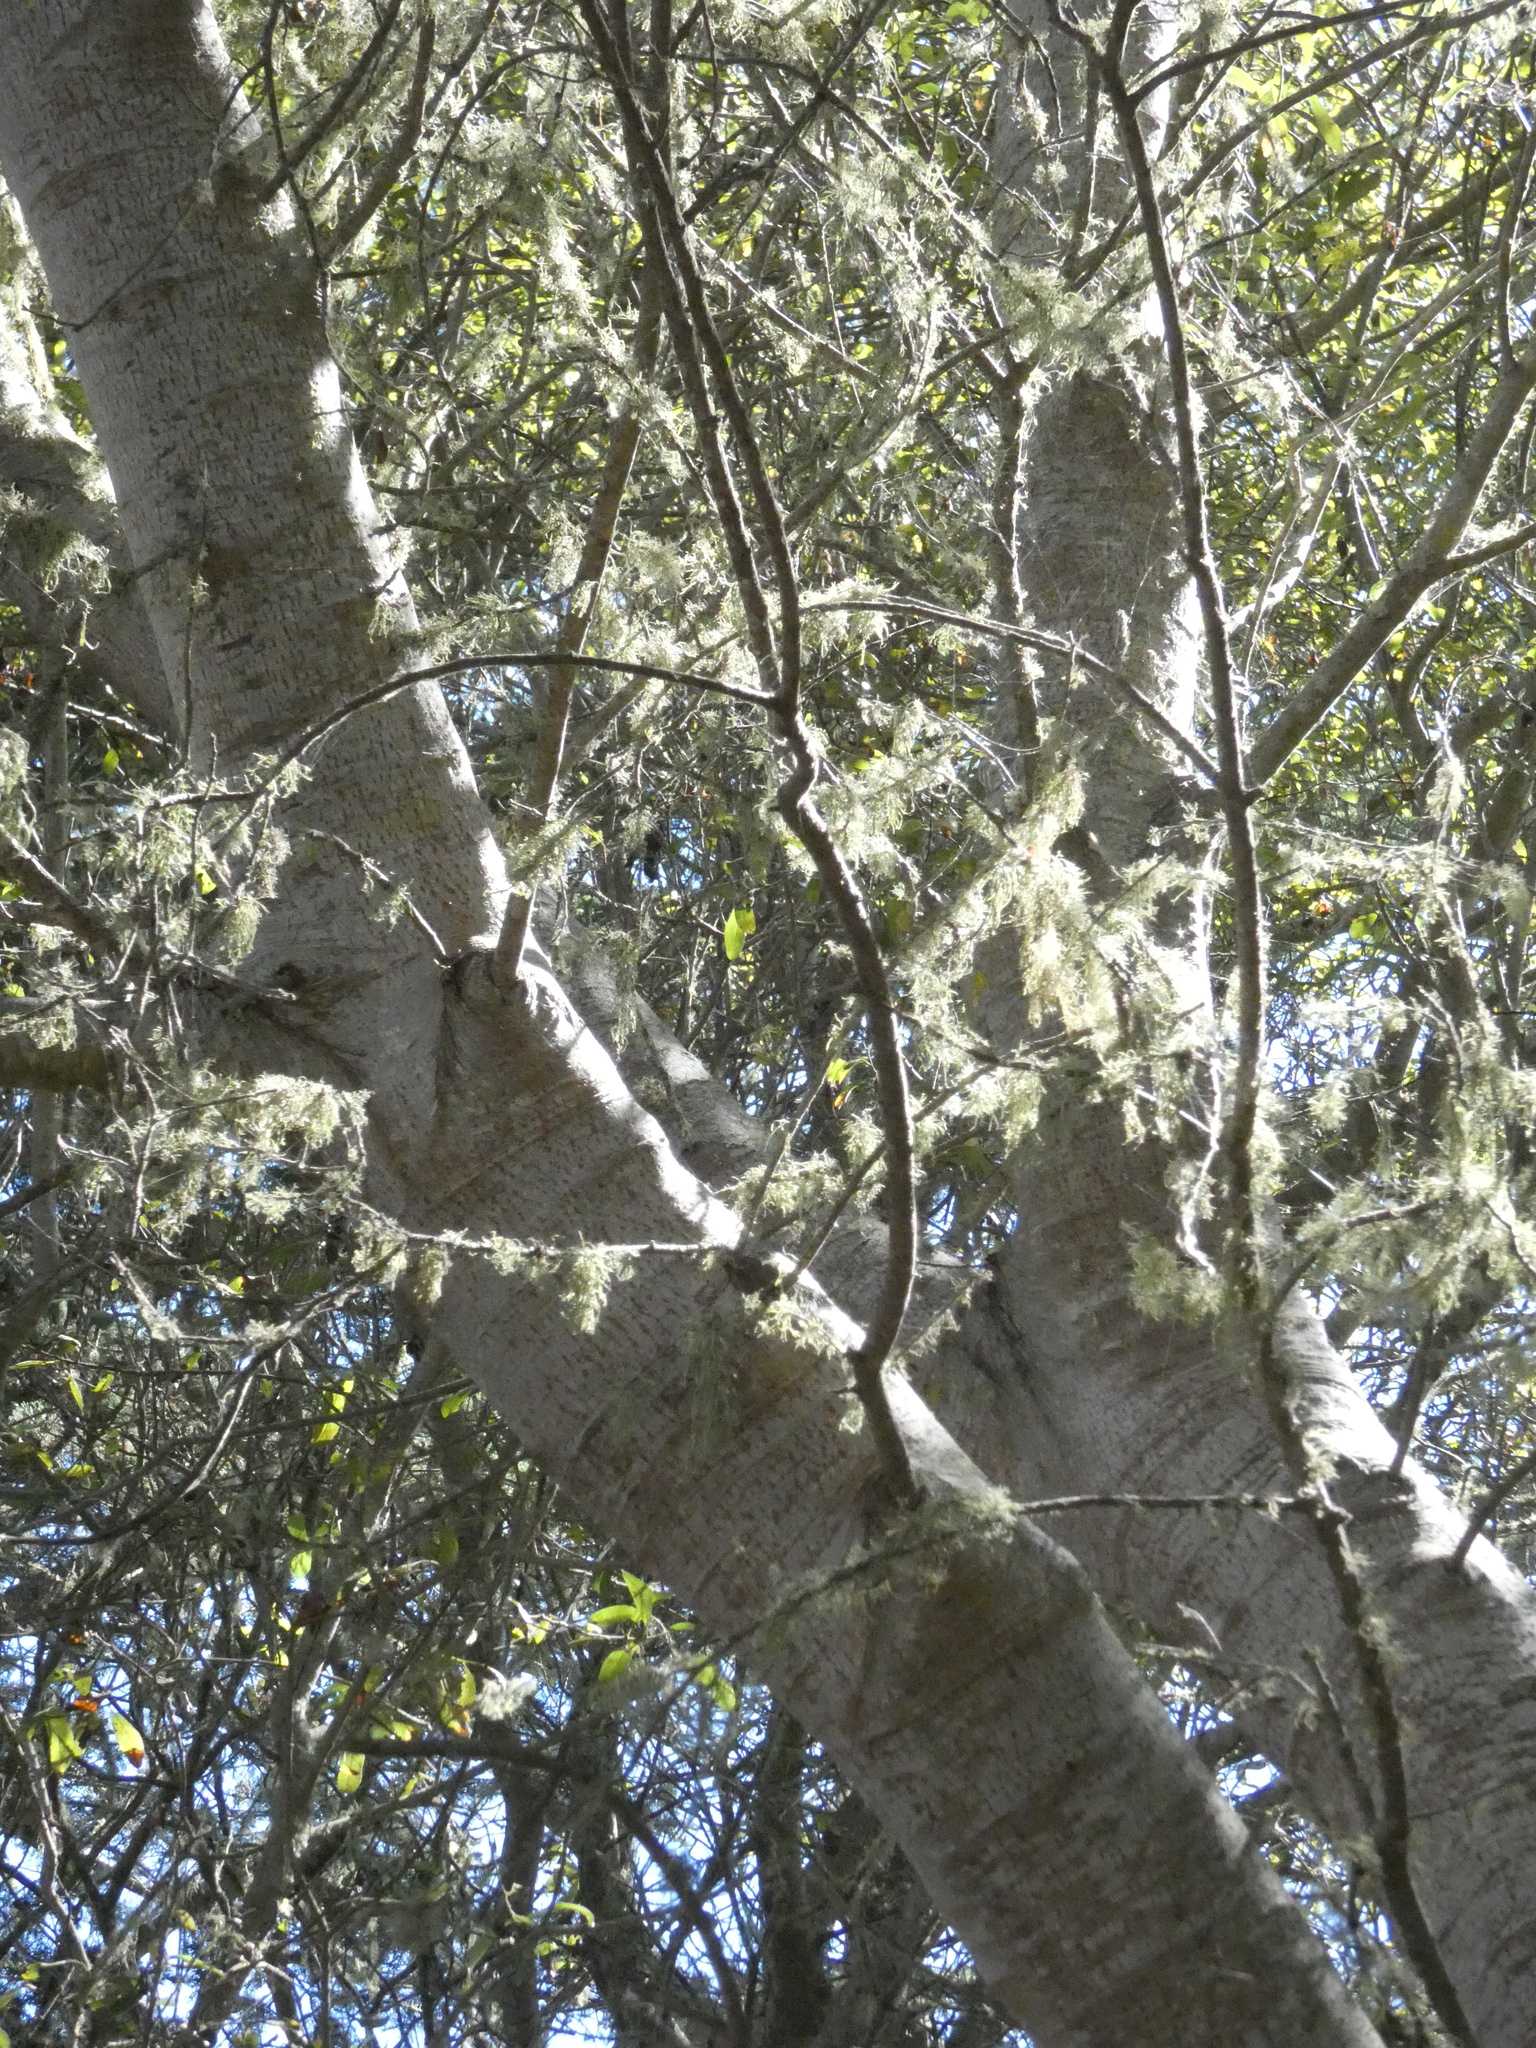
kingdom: Fungi
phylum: Ascomycota
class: Lecanoromycetes
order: Lecanorales
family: Ramalinaceae
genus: Ramalina
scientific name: Ramalina menziesii
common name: Lace lichen
